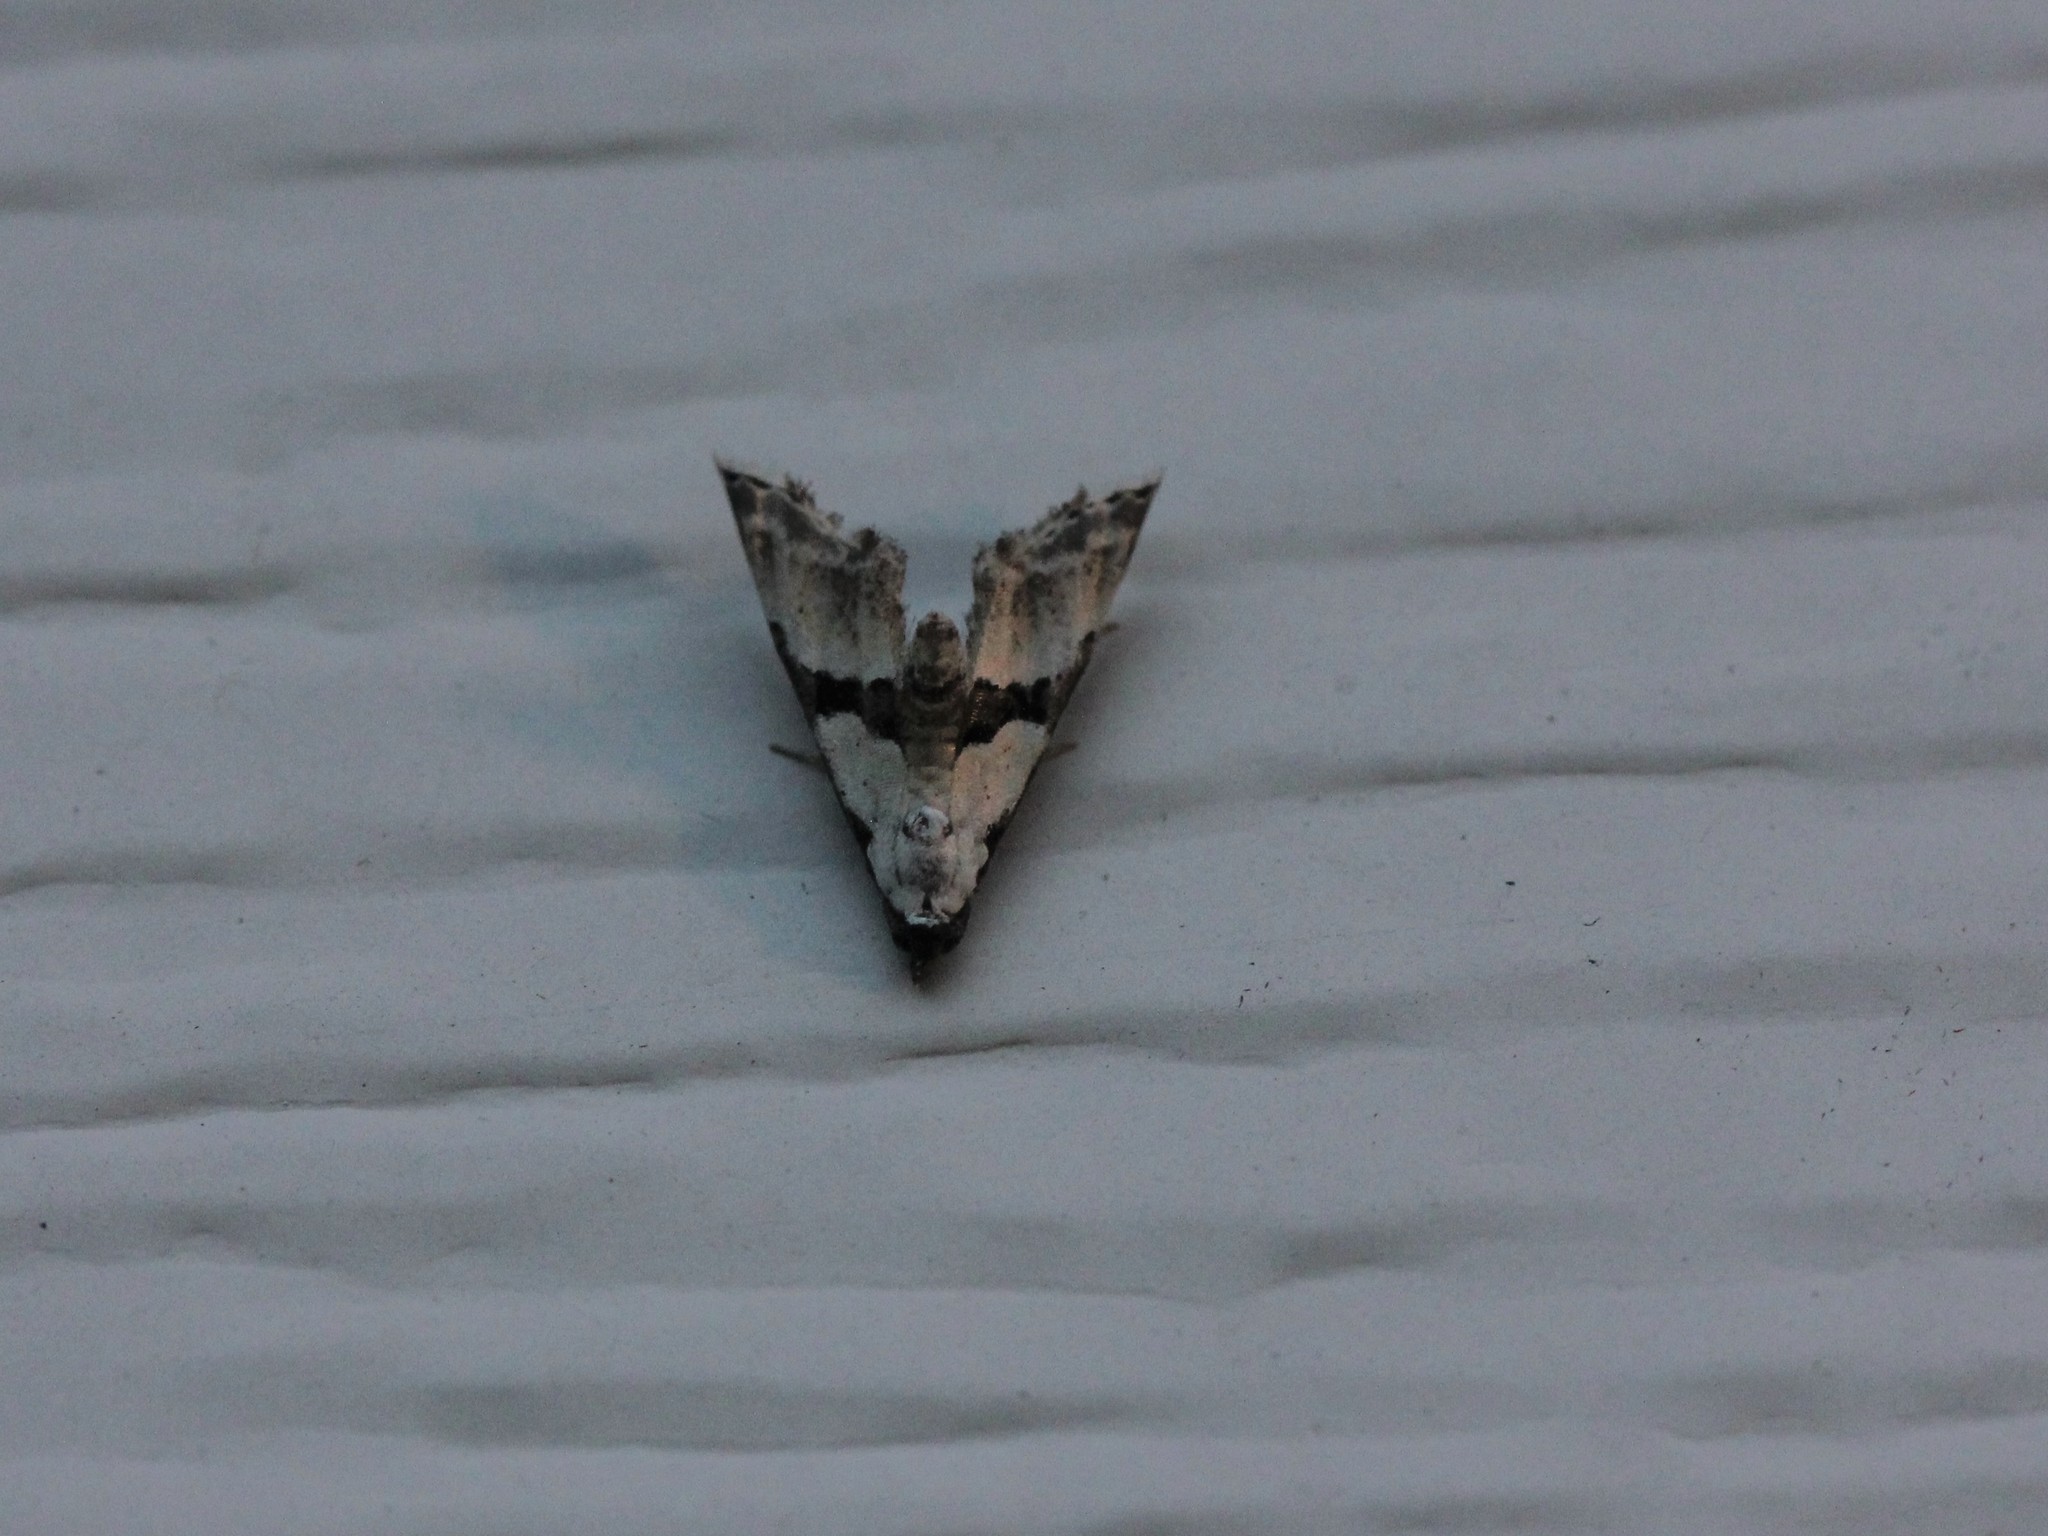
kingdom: Animalia
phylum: Arthropoda
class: Insecta
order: Lepidoptera
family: Noctuidae
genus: Nigetia
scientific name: Nigetia formosalis
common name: Thin-winged owlet
